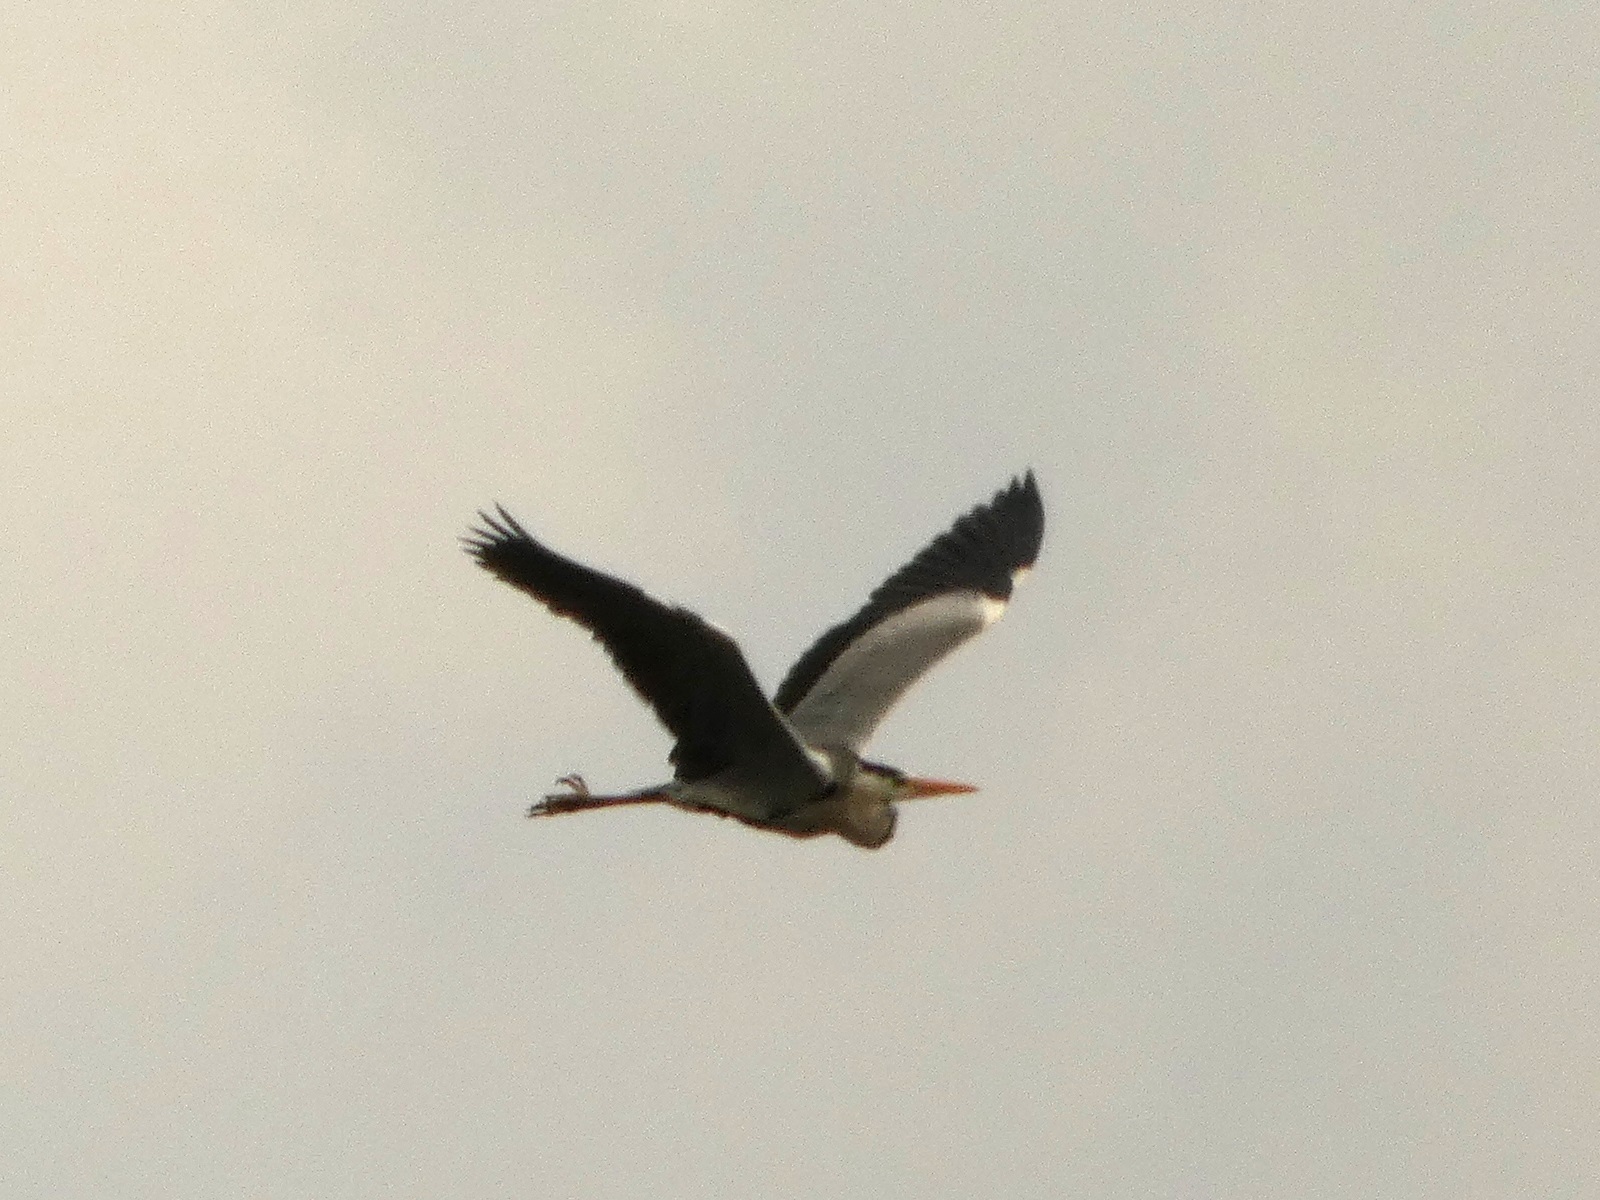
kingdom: Animalia
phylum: Chordata
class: Aves
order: Pelecaniformes
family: Ardeidae
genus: Ardea
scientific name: Ardea cinerea
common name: Grey heron
